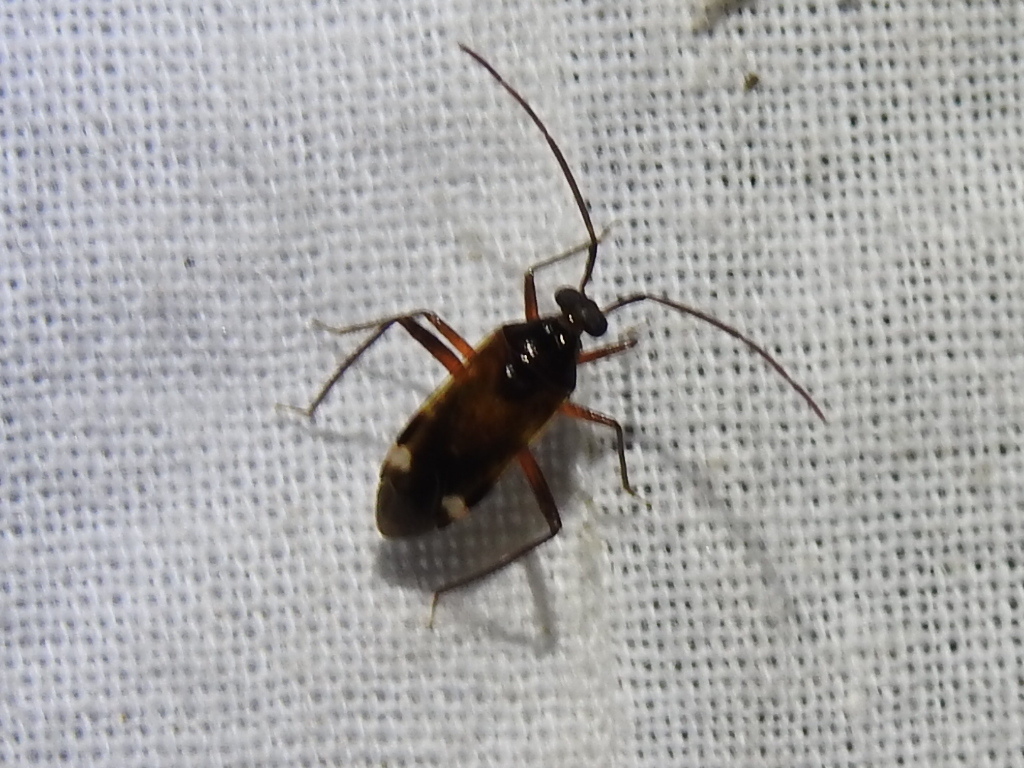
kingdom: Animalia
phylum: Arthropoda
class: Insecta
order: Hemiptera
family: Miridae
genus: Eustictus
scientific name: Eustictus albomaculatus
